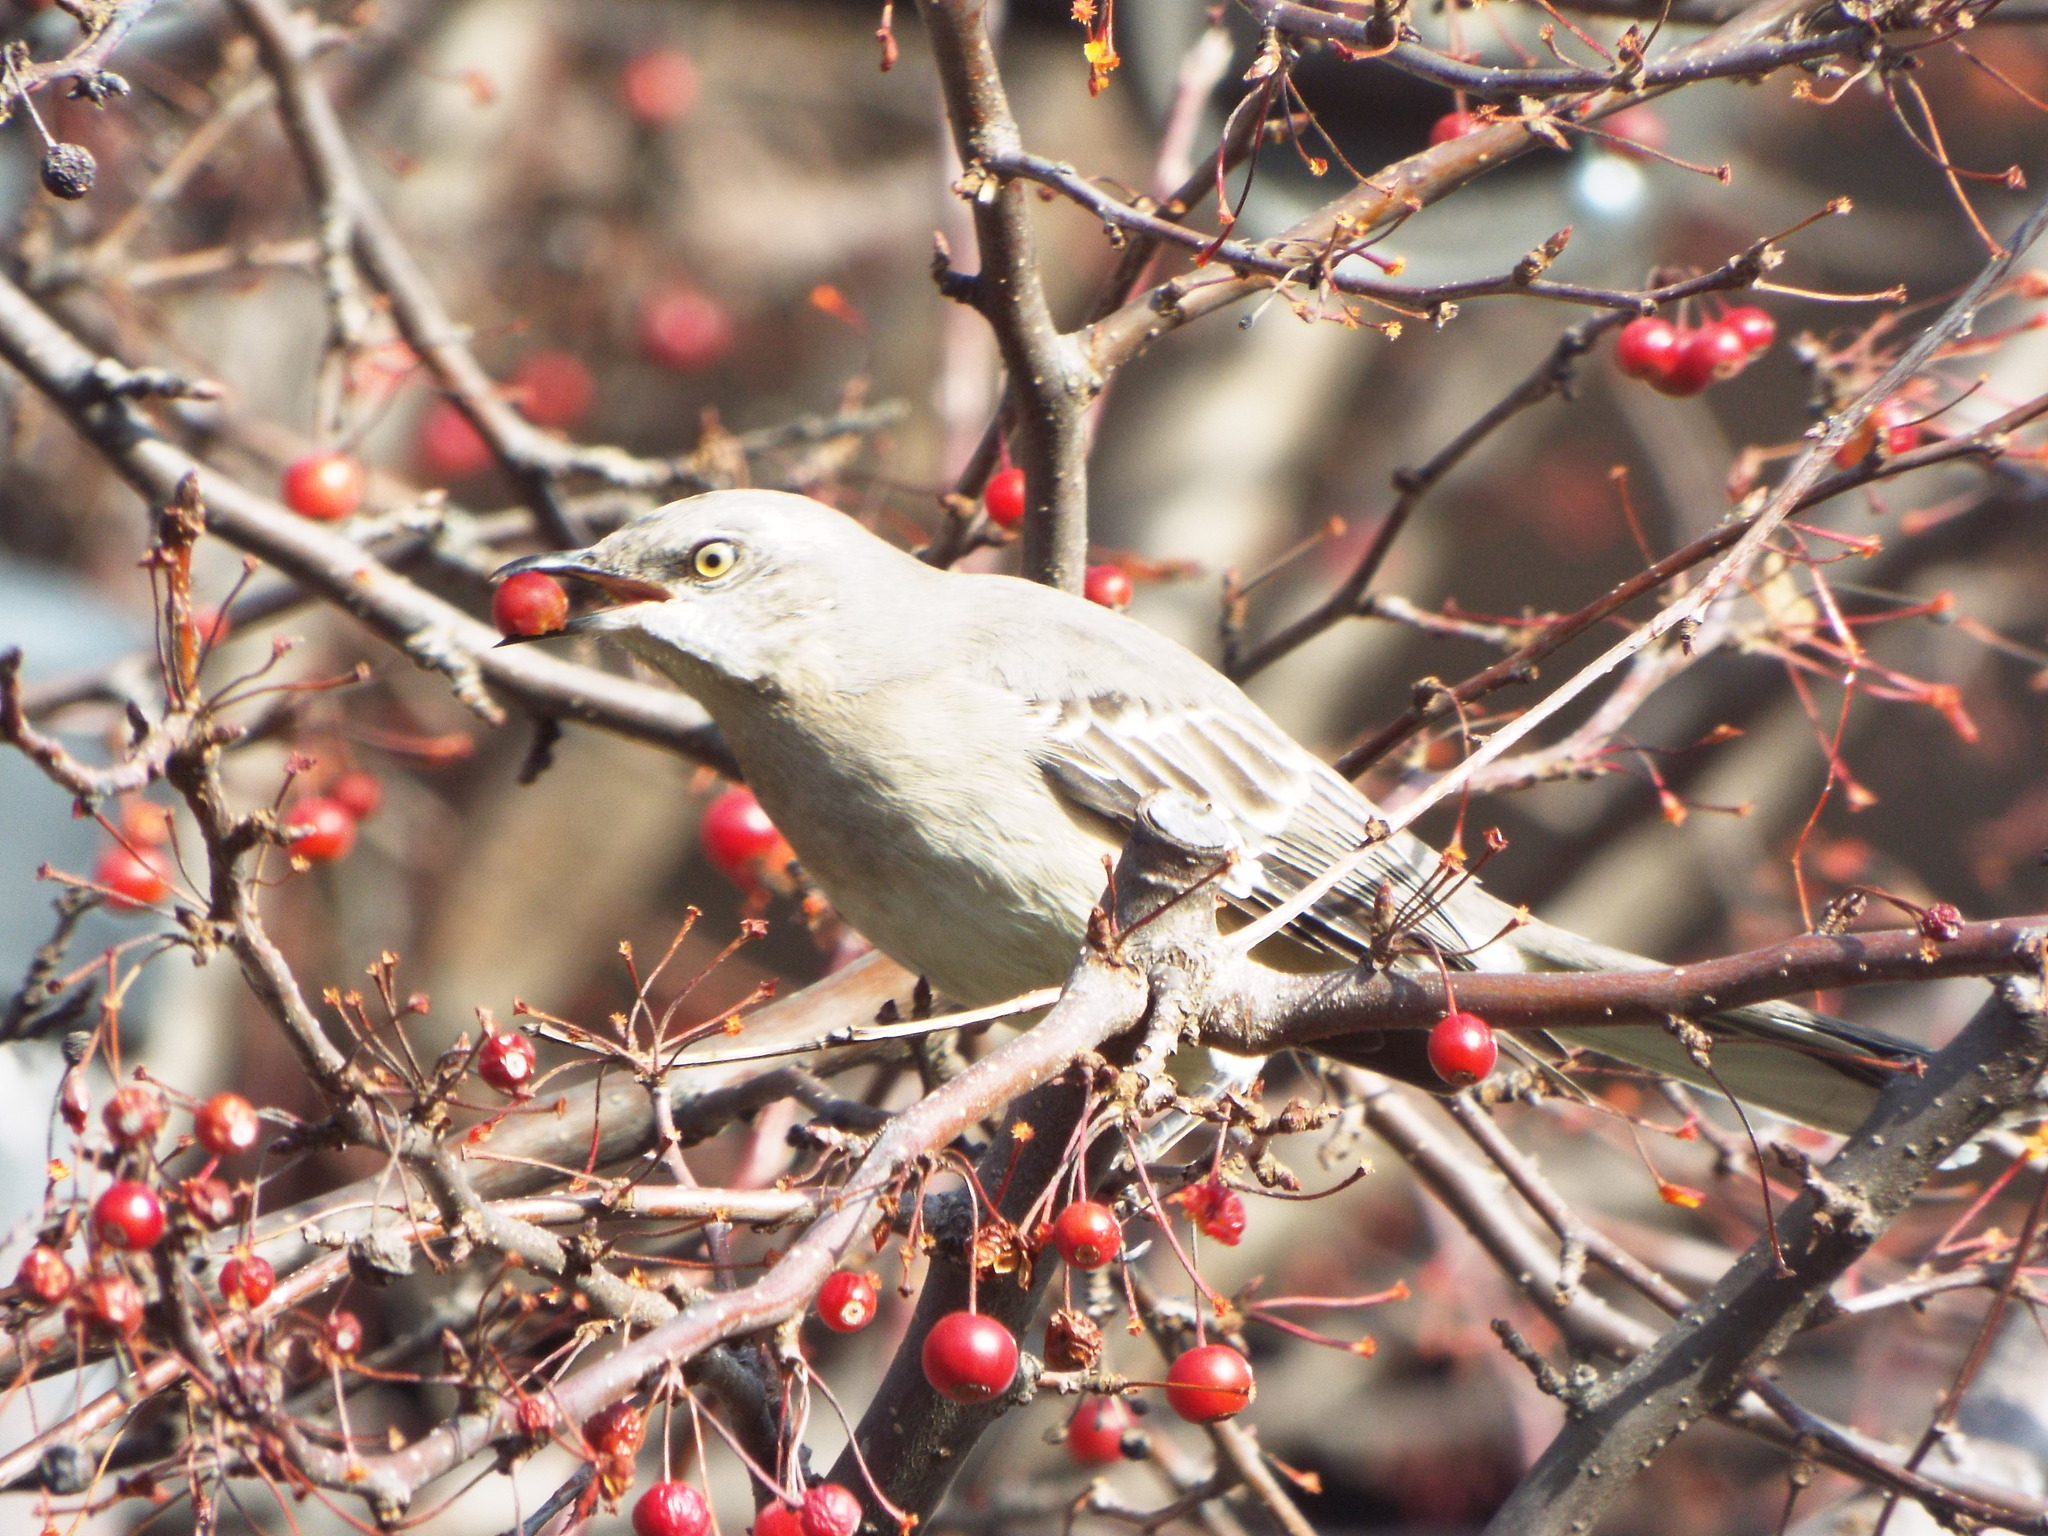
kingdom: Animalia
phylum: Chordata
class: Aves
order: Passeriformes
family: Mimidae
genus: Mimus
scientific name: Mimus polyglottos
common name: Northern mockingbird
